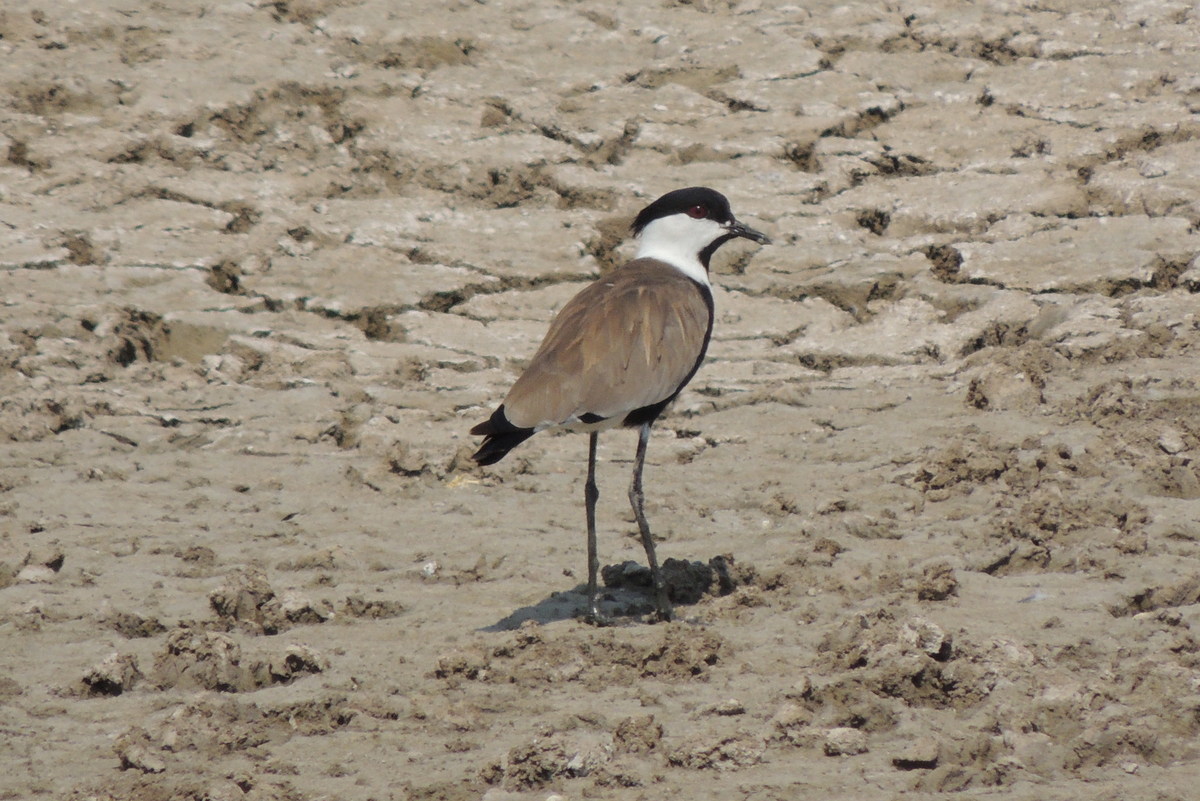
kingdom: Animalia
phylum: Chordata
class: Aves
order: Charadriiformes
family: Charadriidae
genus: Vanellus
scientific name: Vanellus spinosus
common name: Spur-winged lapwing
